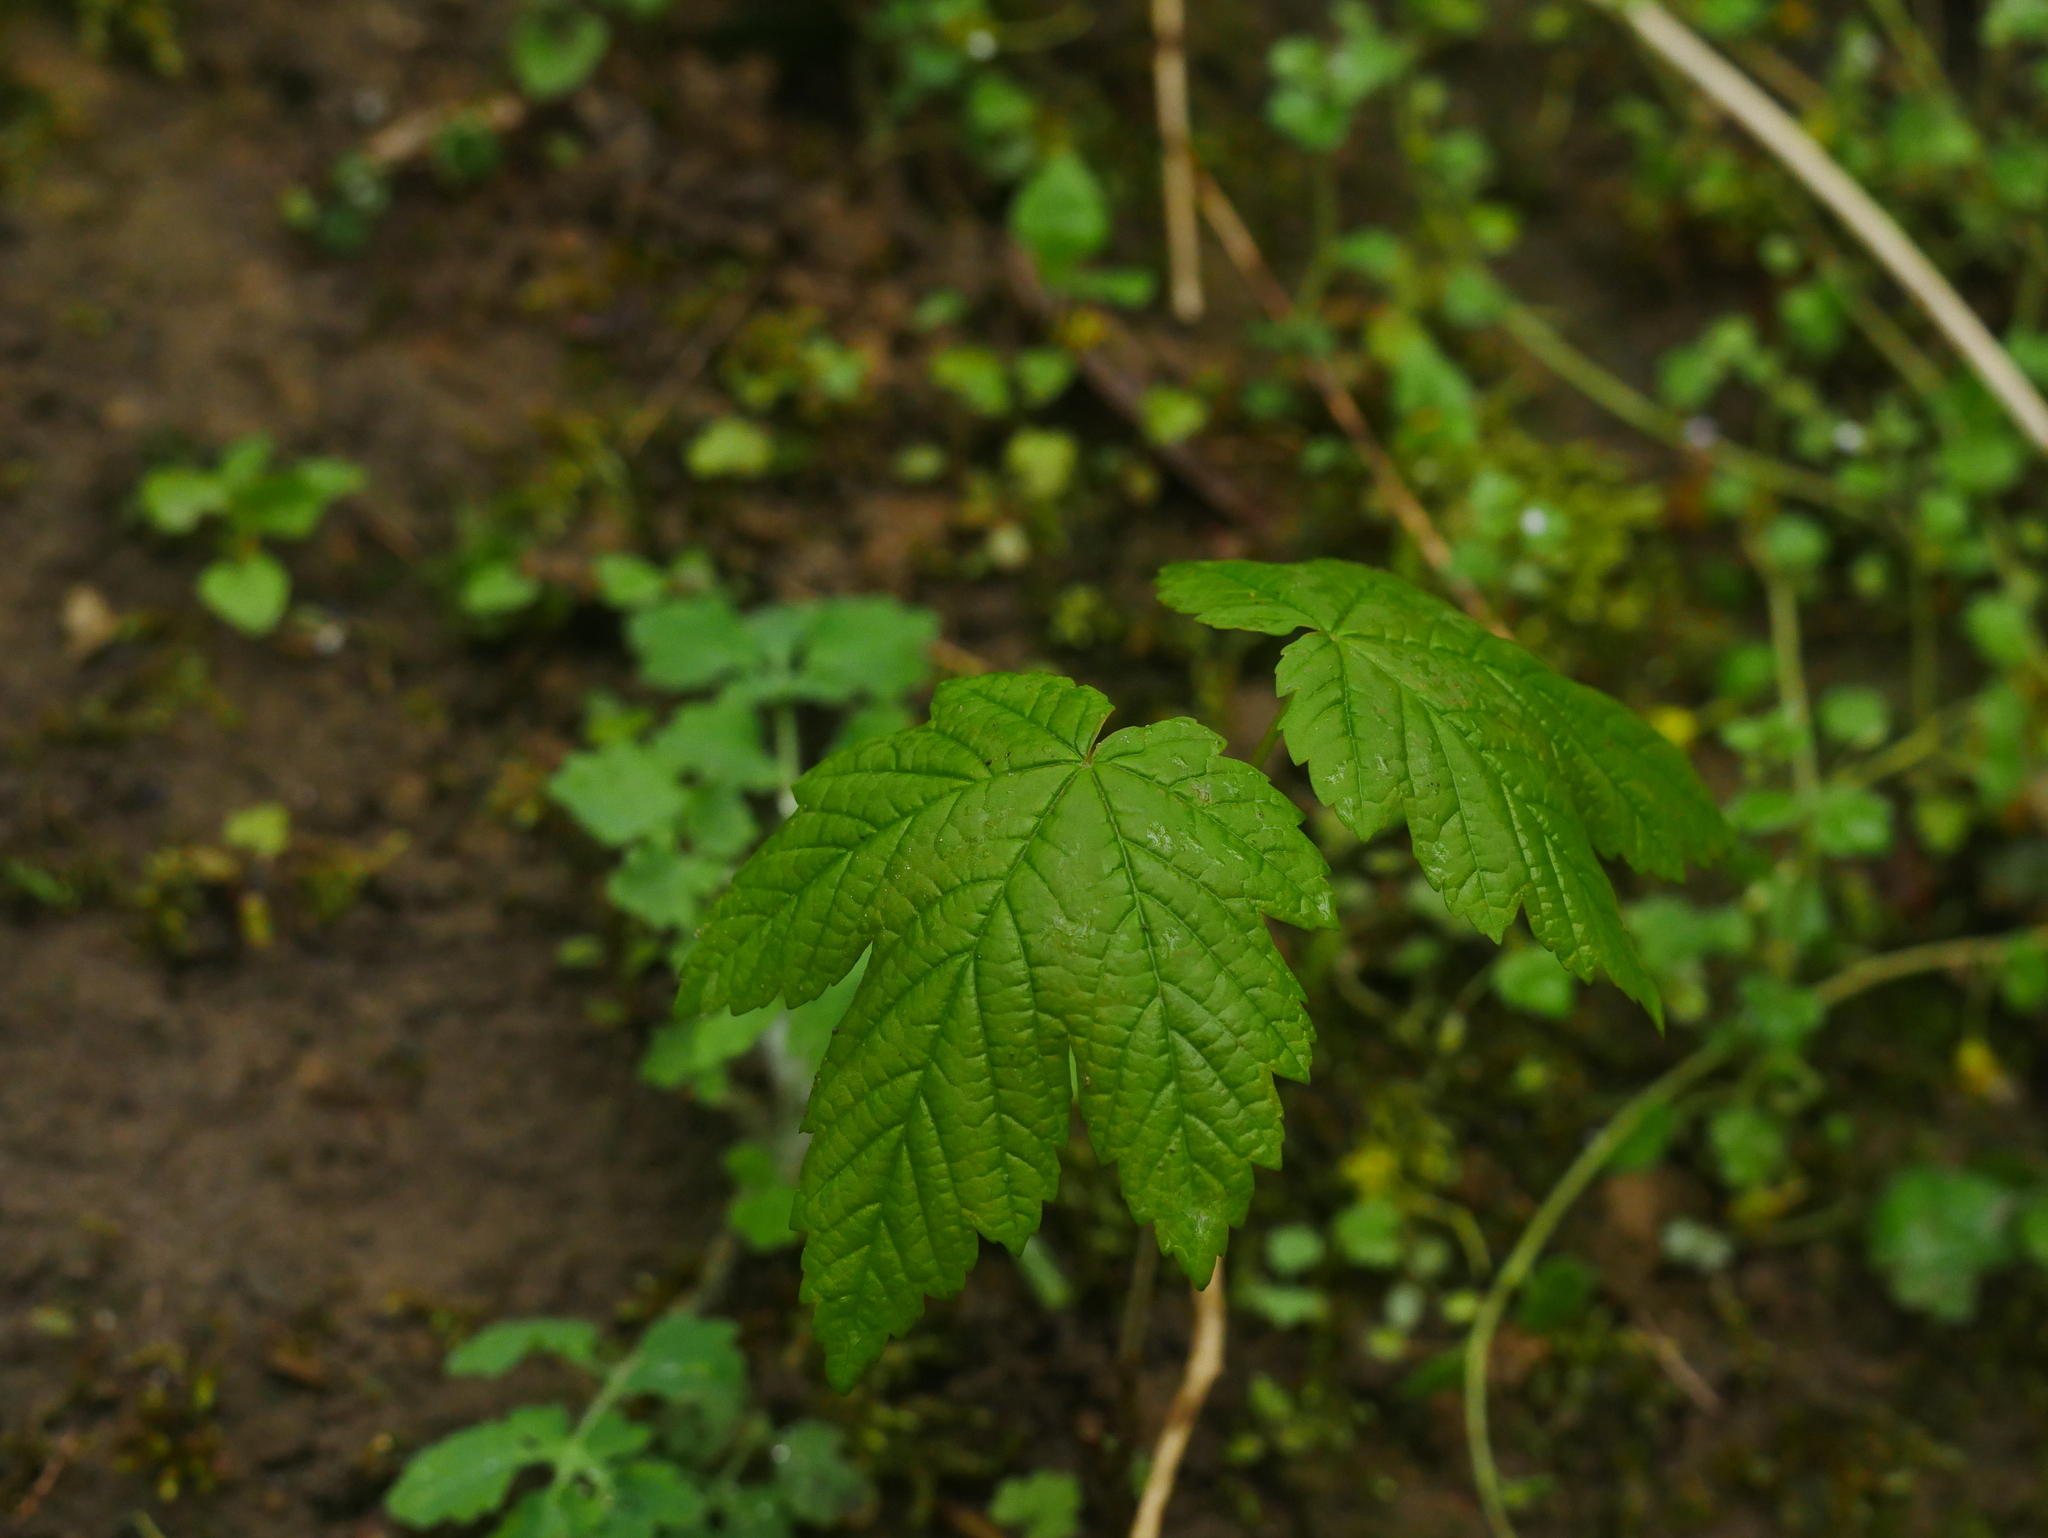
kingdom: Plantae
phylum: Tracheophyta
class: Magnoliopsida
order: Sapindales
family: Sapindaceae
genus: Acer
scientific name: Acer pseudoplatanus
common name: Sycamore
